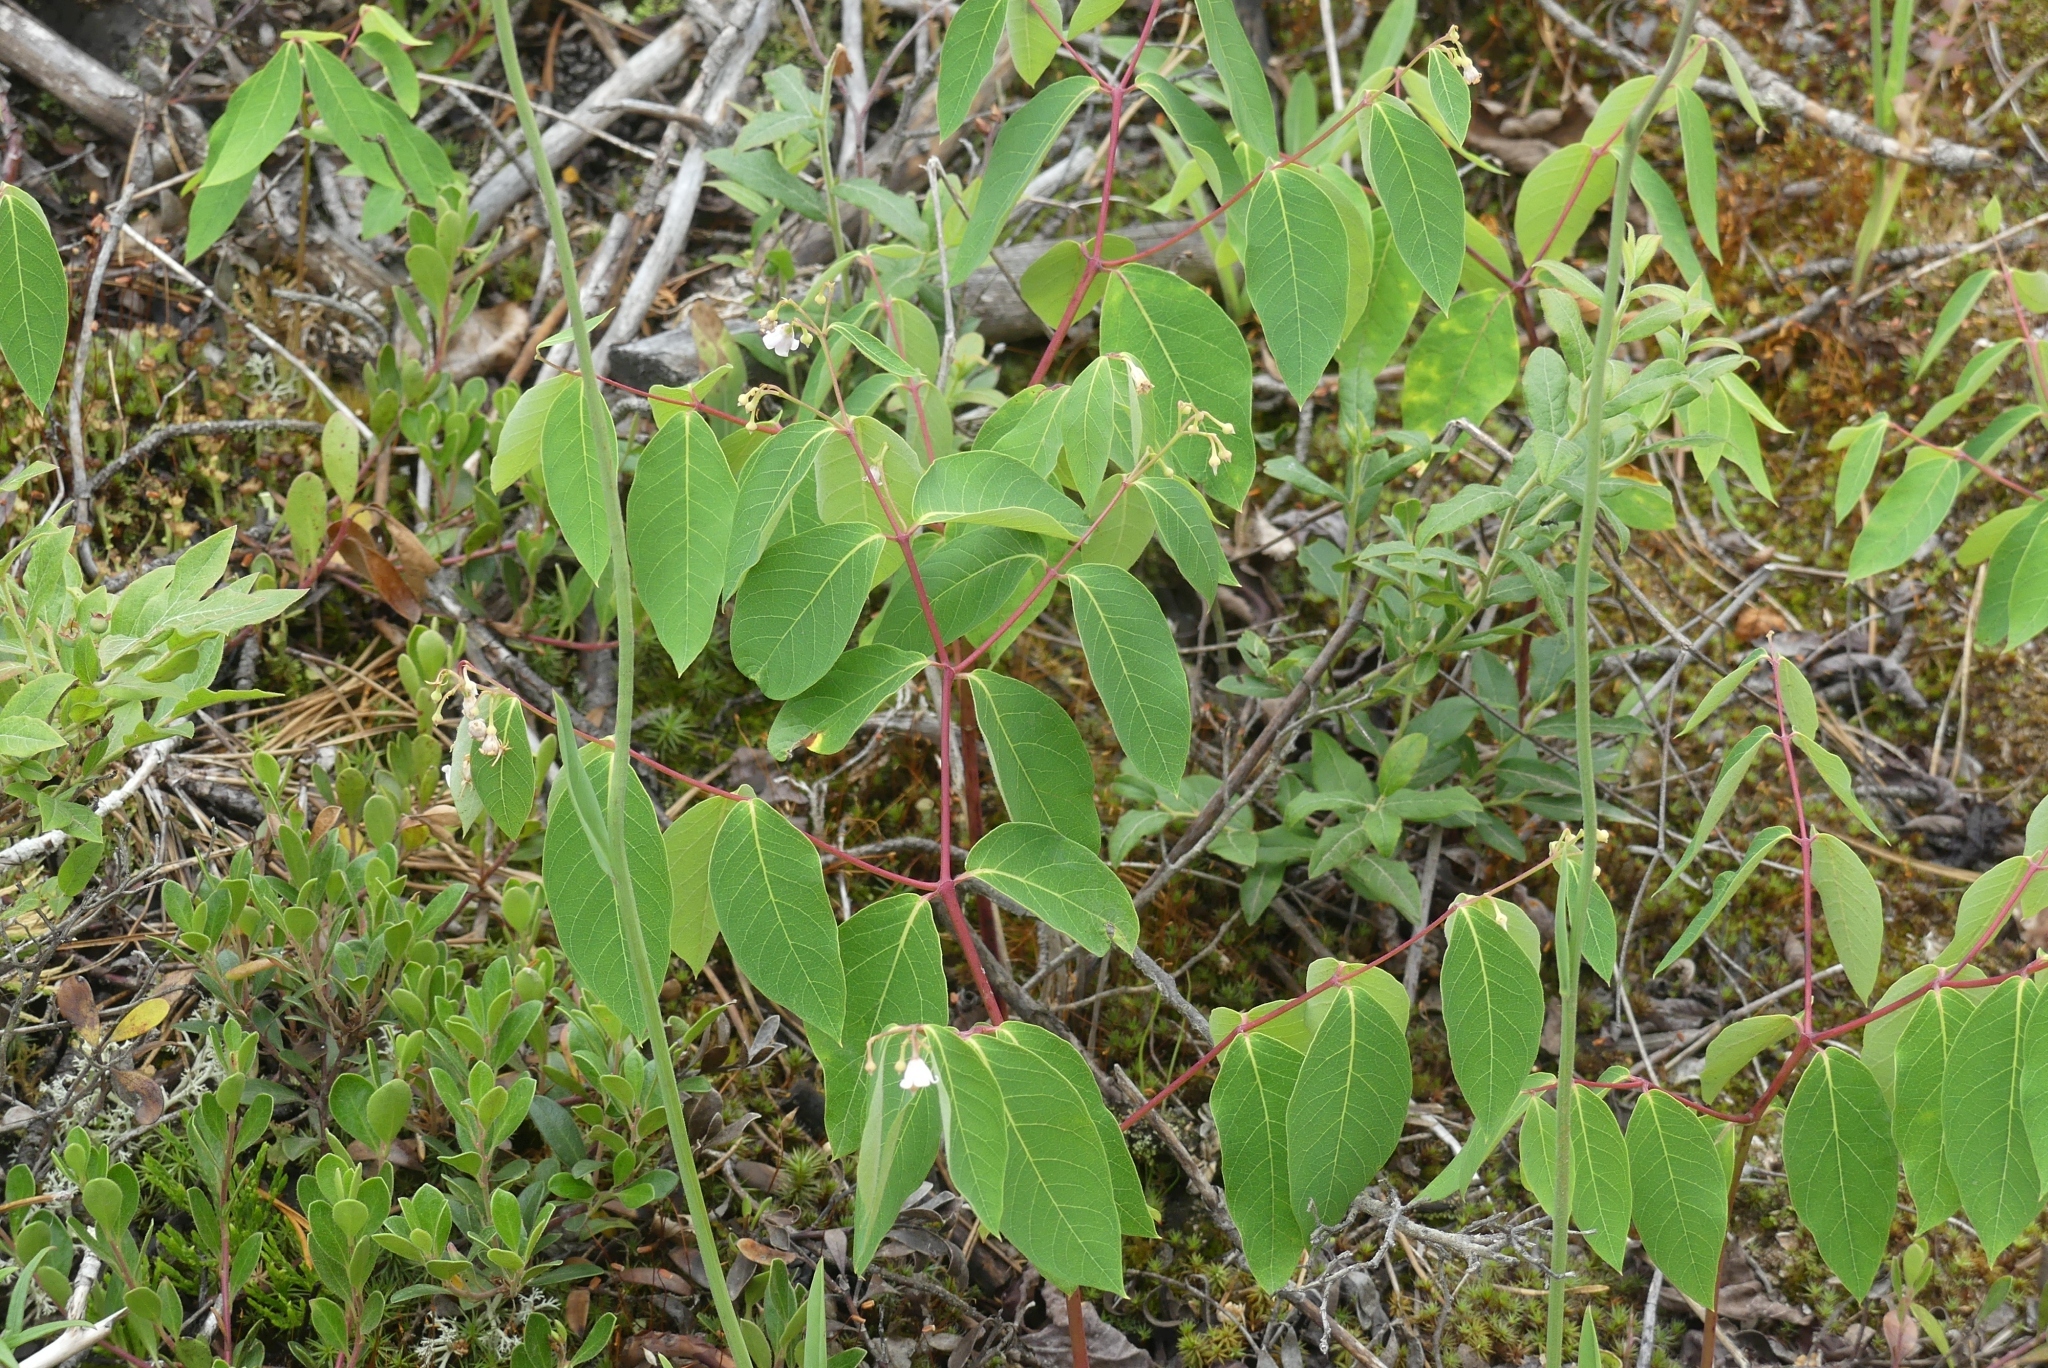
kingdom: Plantae
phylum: Tracheophyta
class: Magnoliopsida
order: Gentianales
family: Apocynaceae
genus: Apocynum
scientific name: Apocynum androsaemifolium
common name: Spreading dogbane
